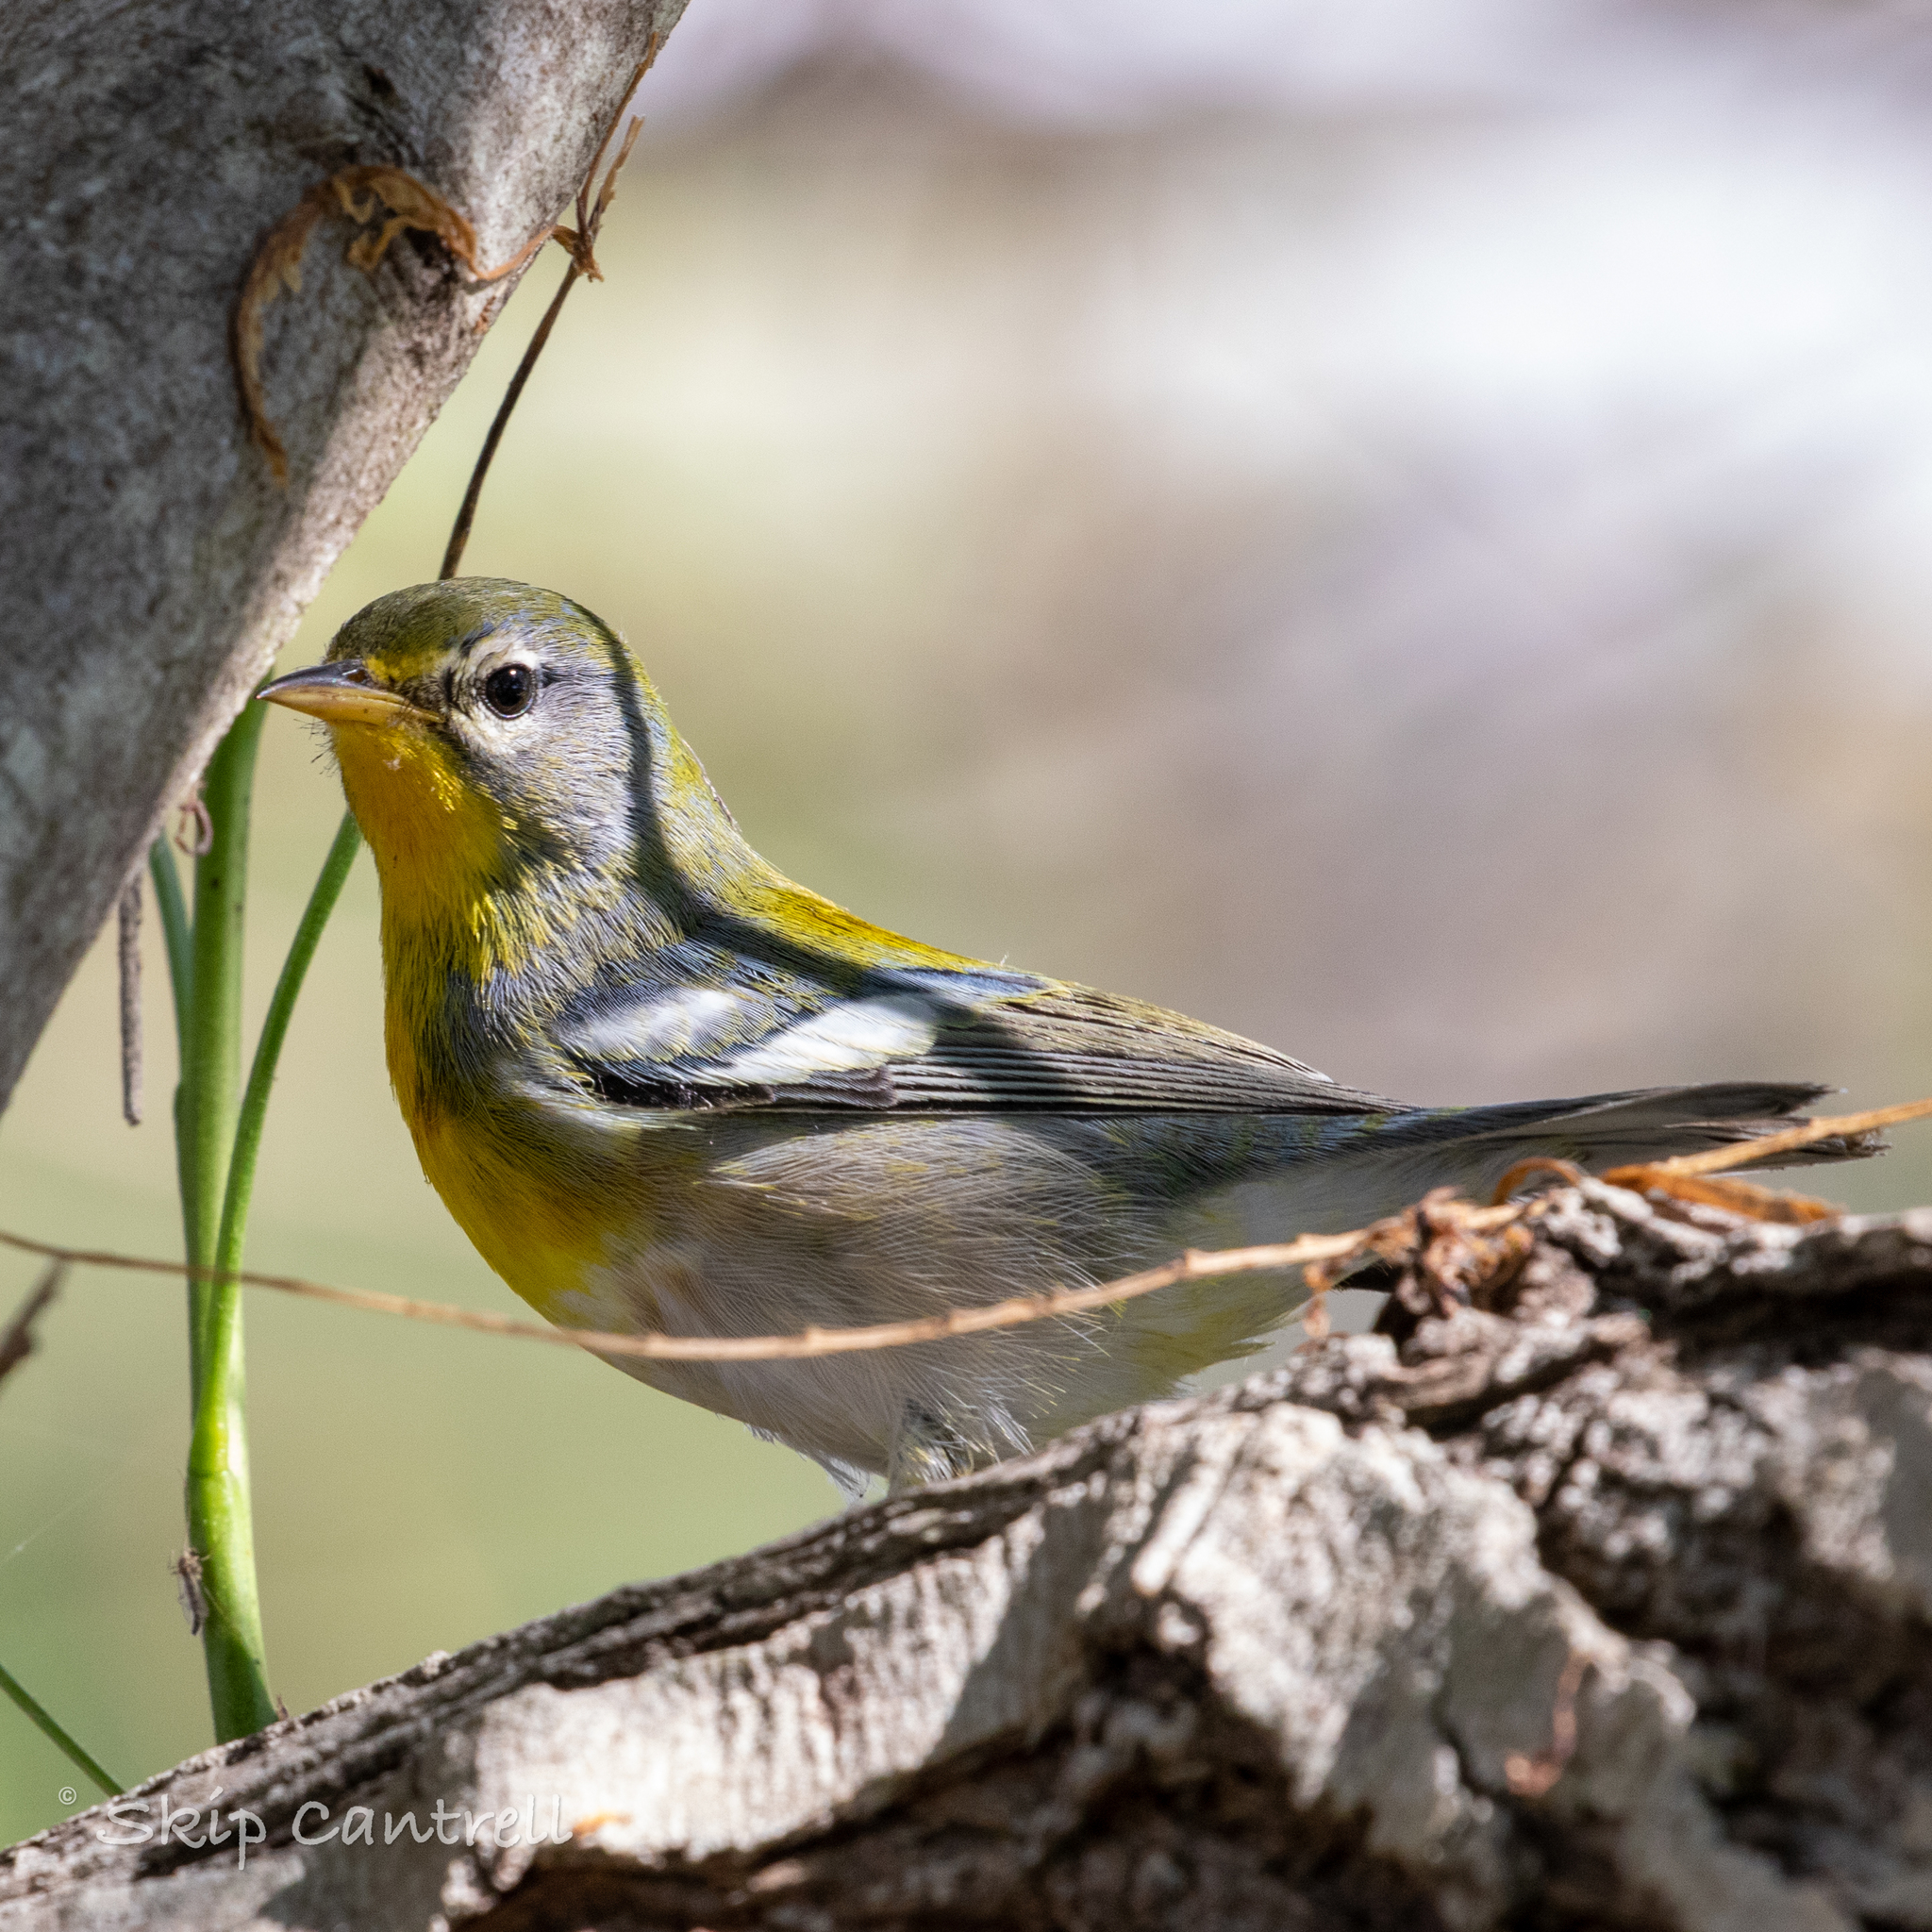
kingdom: Animalia
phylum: Chordata
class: Aves
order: Passeriformes
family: Parulidae
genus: Setophaga
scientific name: Setophaga americana
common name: Northern parula
